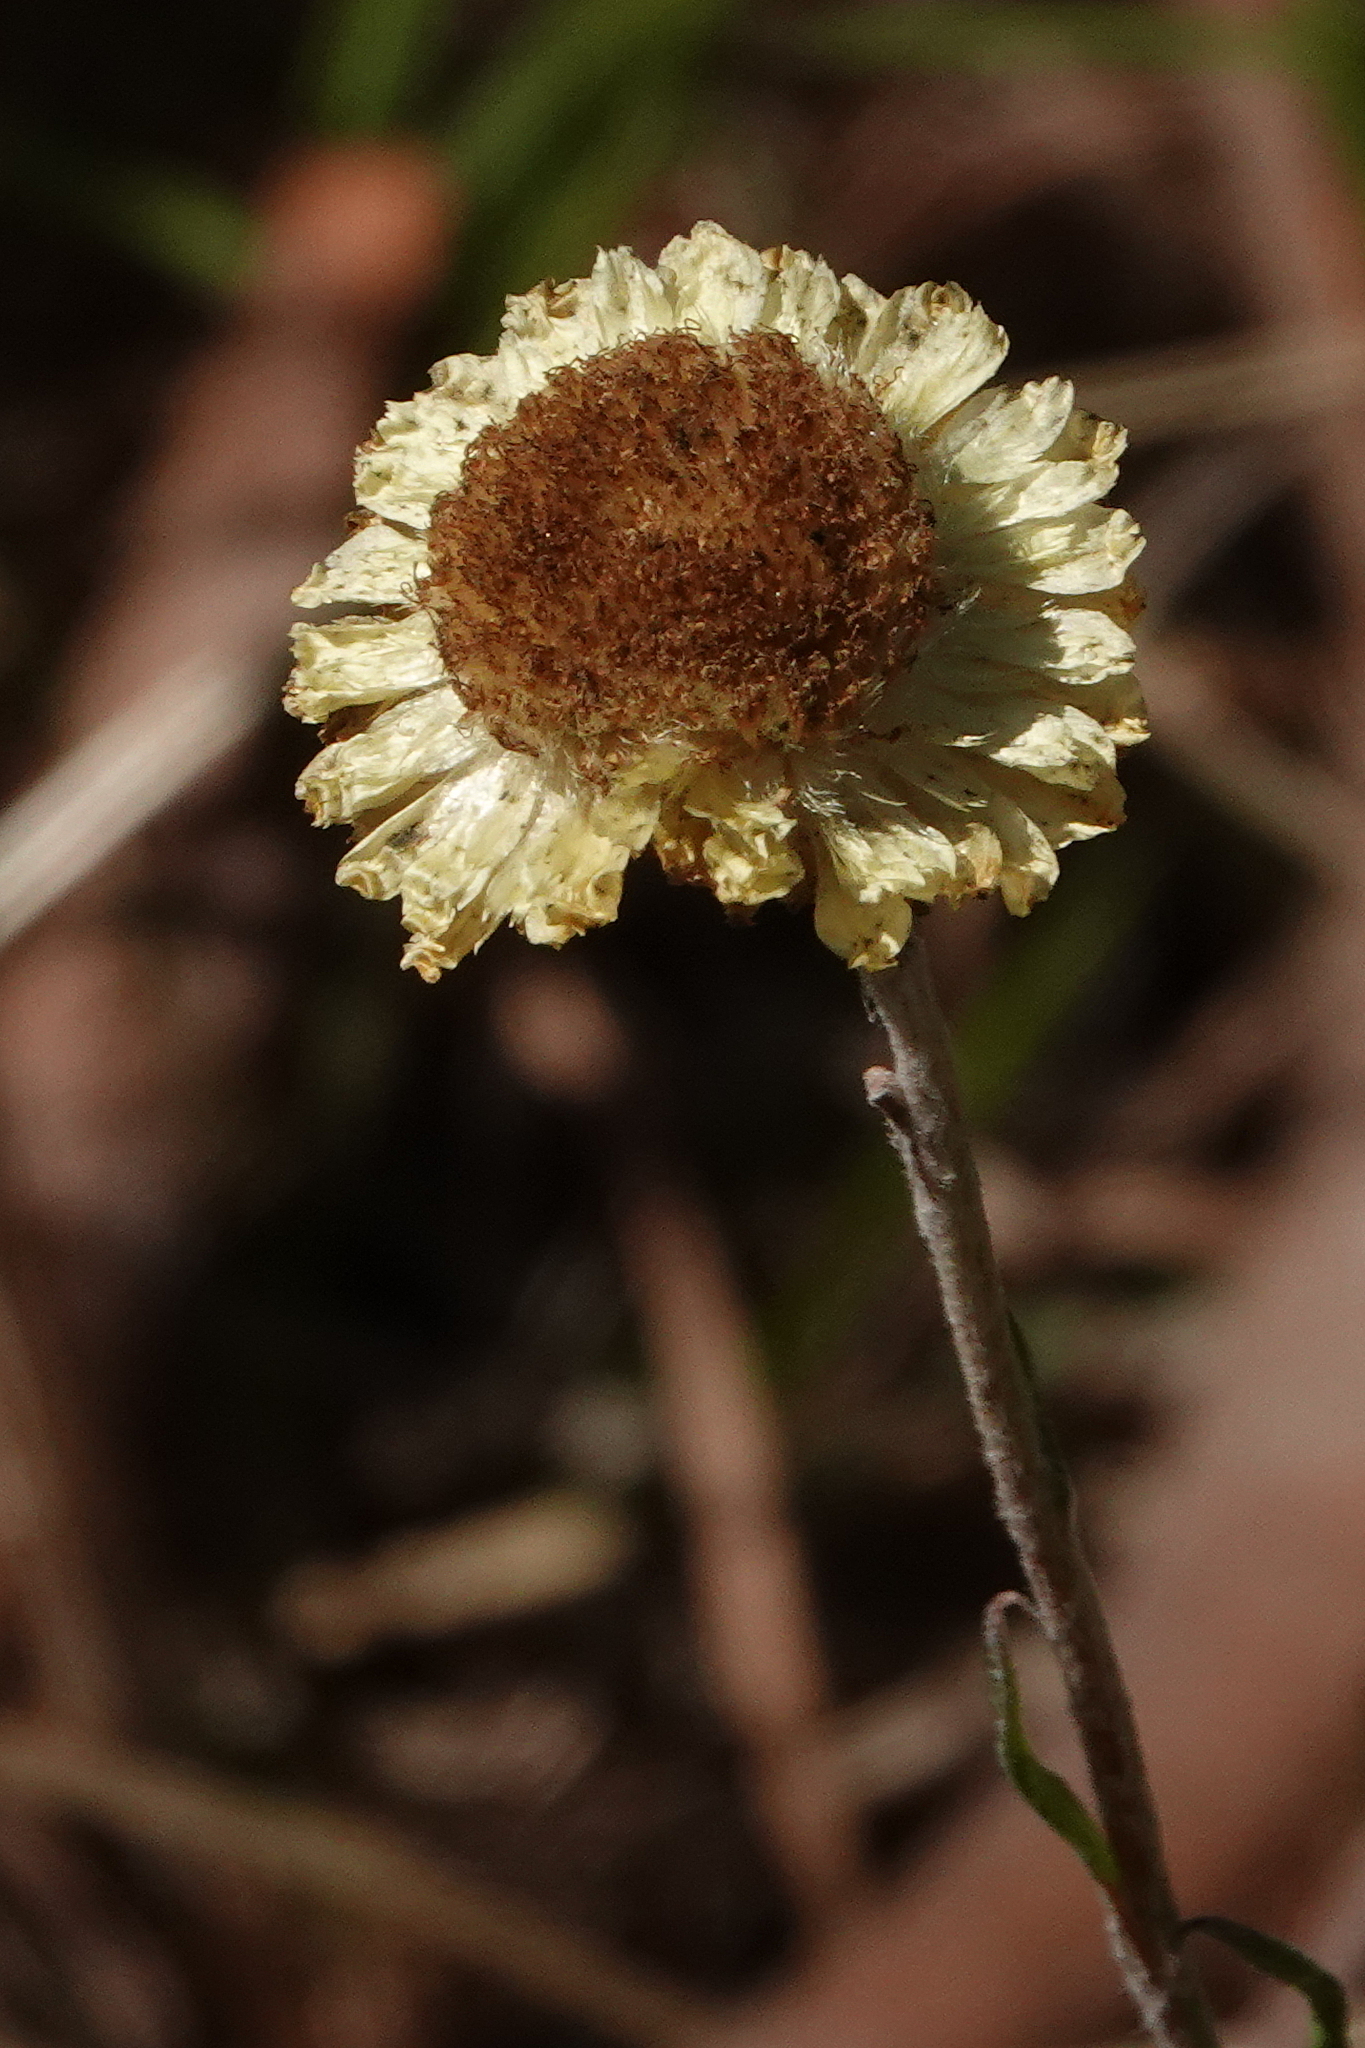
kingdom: Plantae
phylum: Tracheophyta
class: Magnoliopsida
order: Asterales
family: Asteraceae
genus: Coronidium
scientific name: Coronidium scorpioides
